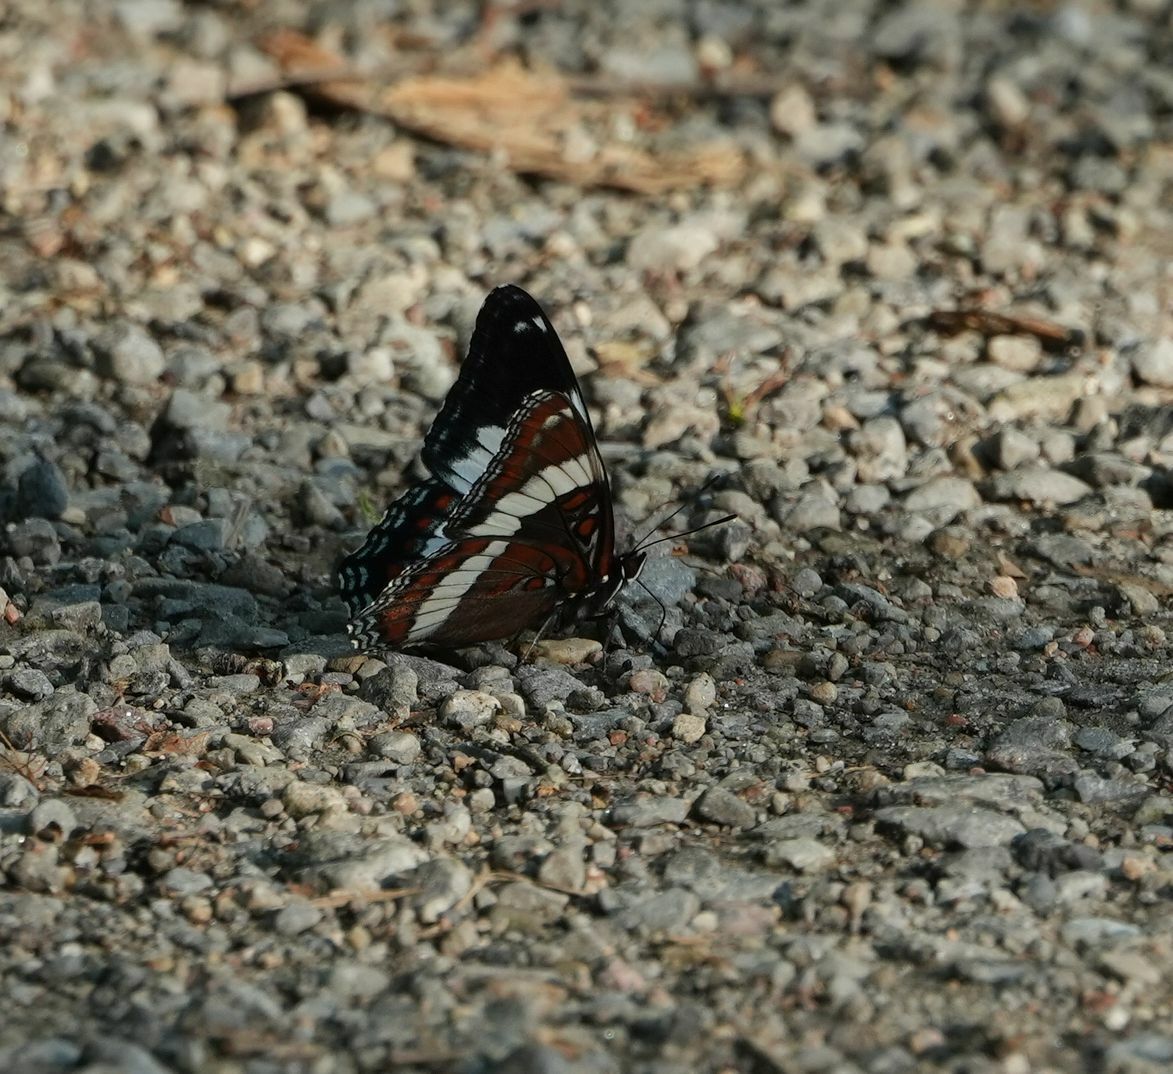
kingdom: Animalia
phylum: Arthropoda
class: Insecta
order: Lepidoptera
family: Nymphalidae
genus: Limenitis
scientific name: Limenitis arthemis
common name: Red-spotted admiral
